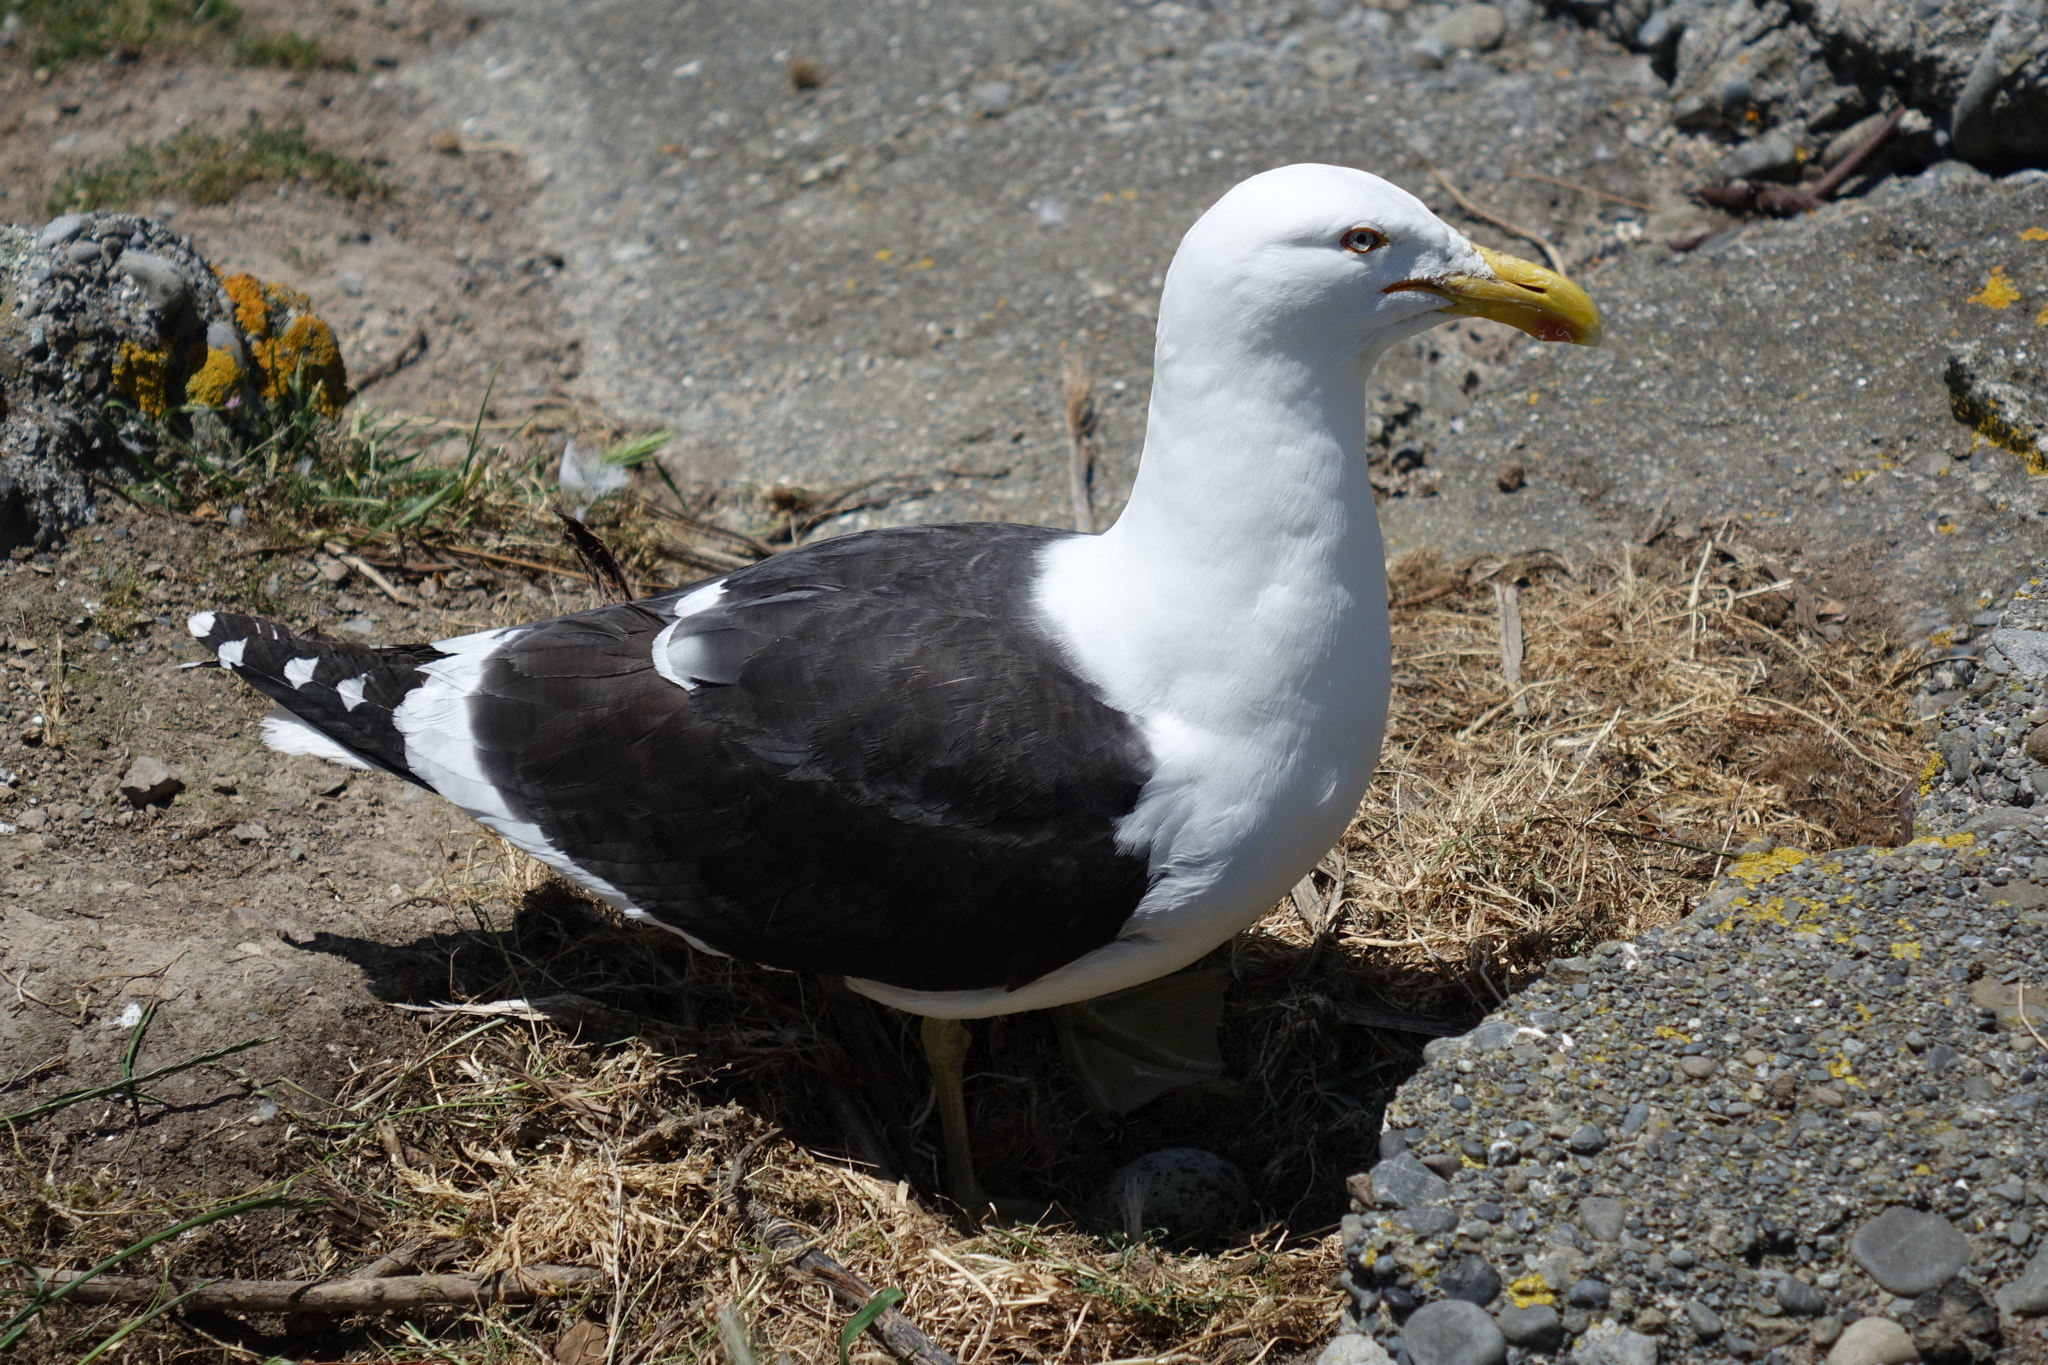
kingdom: Animalia
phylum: Chordata
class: Aves
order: Charadriiformes
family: Laridae
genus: Larus
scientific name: Larus dominicanus
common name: Kelp gull
